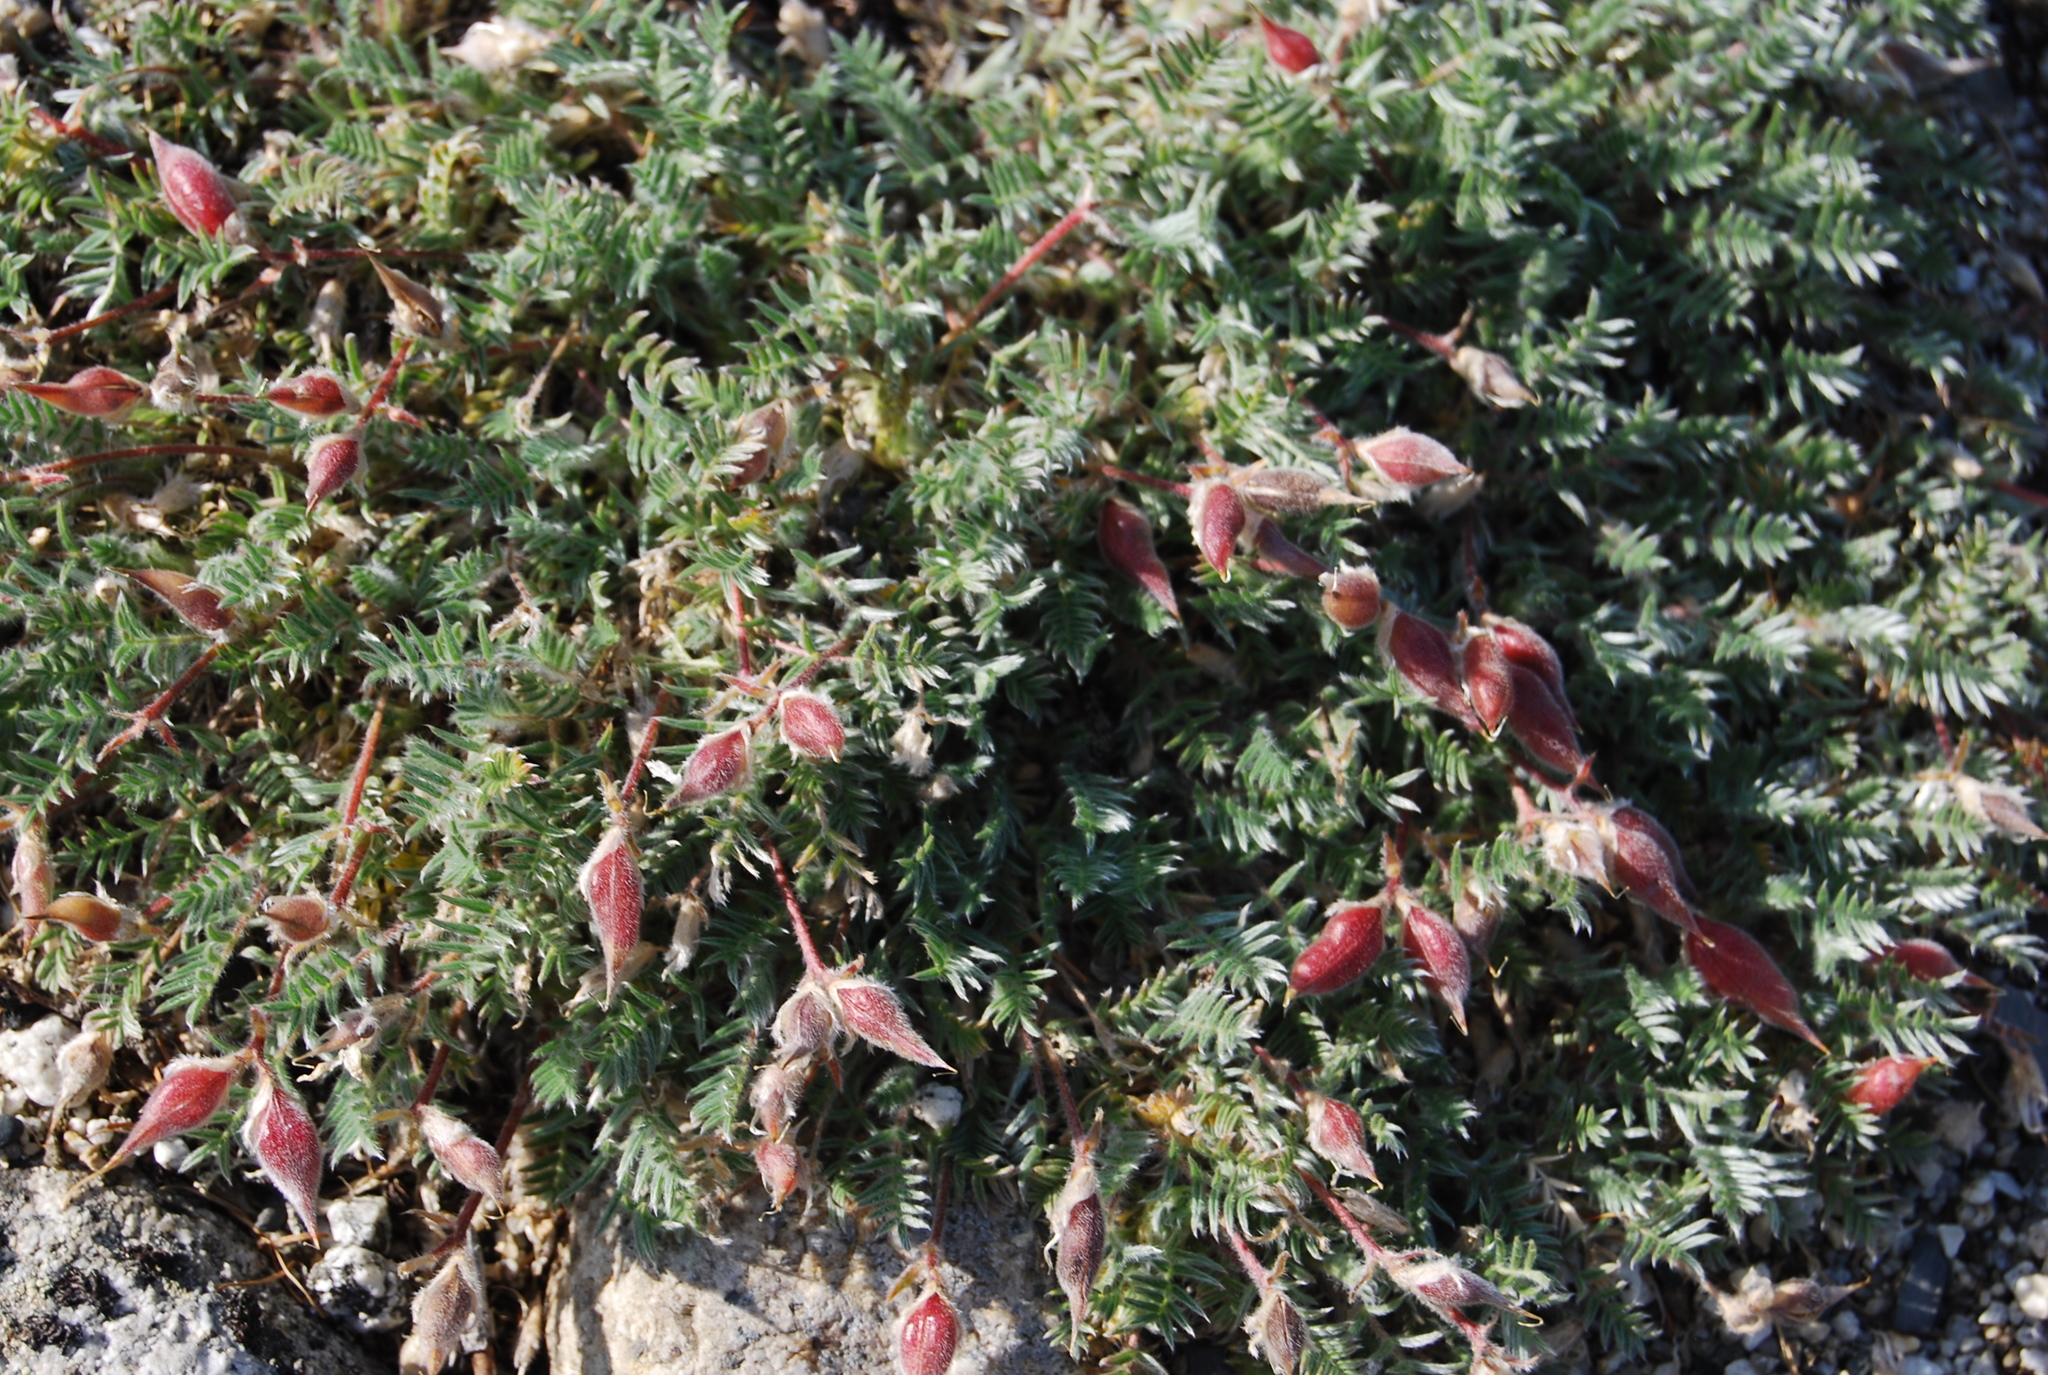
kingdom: Plantae
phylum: Tracheophyta
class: Magnoliopsida
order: Fabales
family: Fabaceae
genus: Oxytropis
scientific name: Oxytropis susumanica
